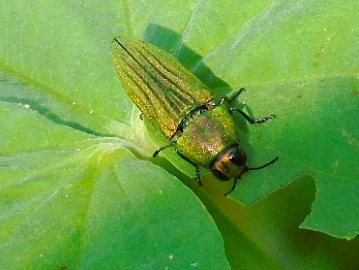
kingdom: Animalia
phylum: Arthropoda
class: Insecta
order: Coleoptera
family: Buprestidae
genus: Agaeocera
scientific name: Agaeocera scintillans
